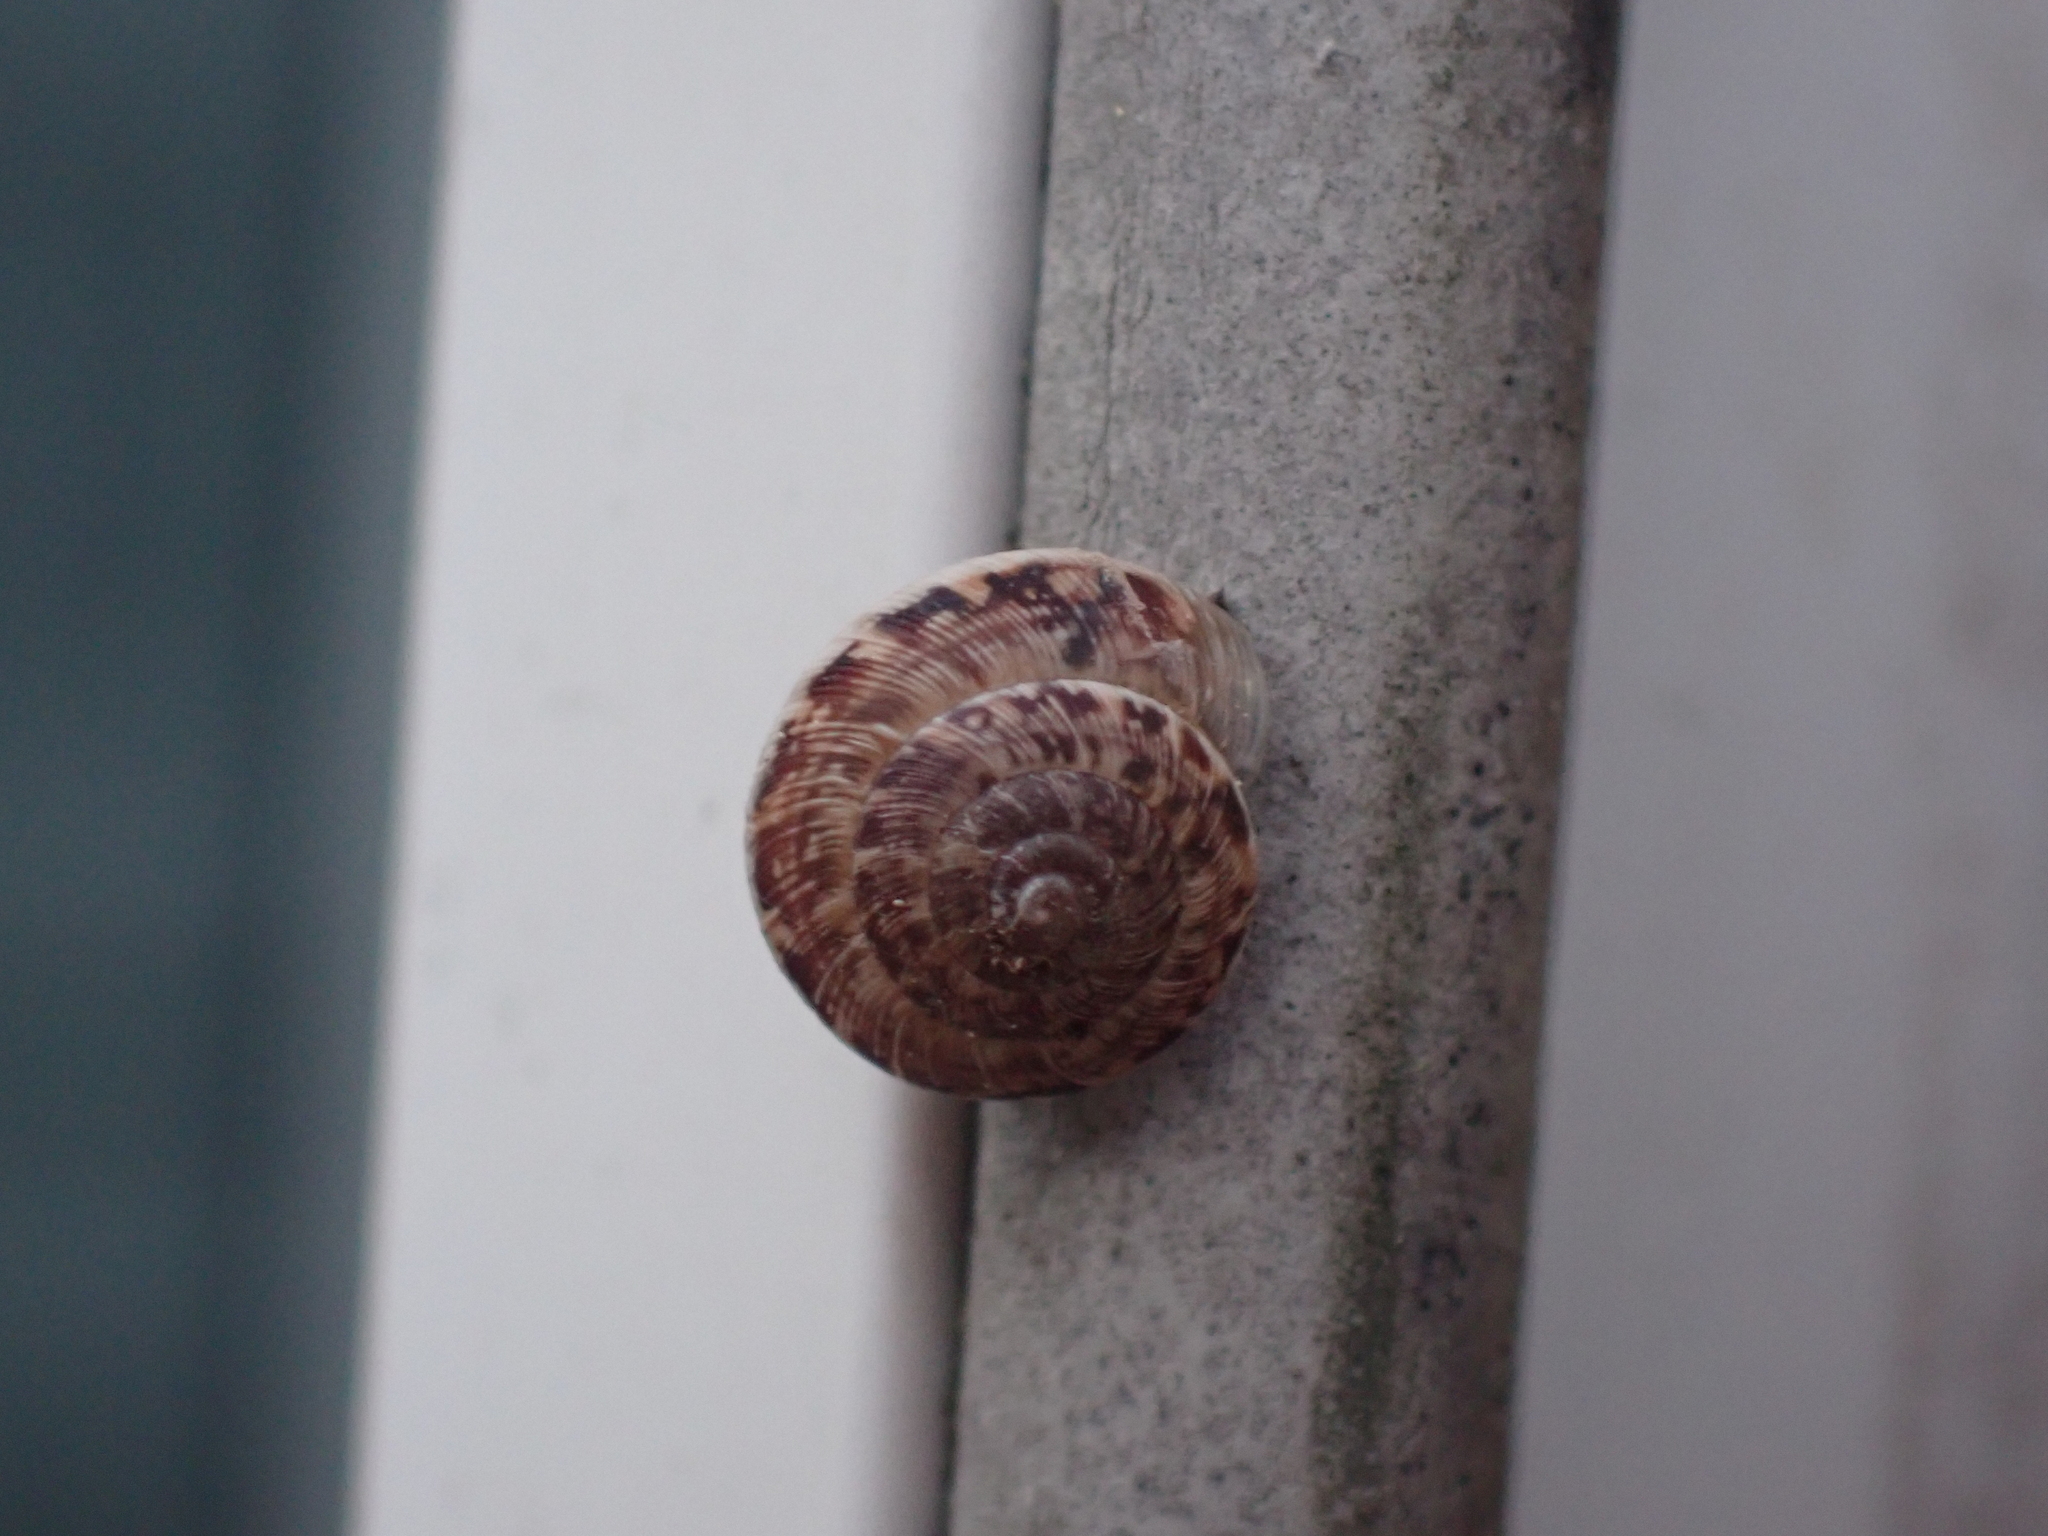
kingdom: Animalia
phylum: Mollusca
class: Gastropoda
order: Stylommatophora
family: Geomitridae
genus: Xeroplexa
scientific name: Xeroplexa intersecta
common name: Wrinkled snail
